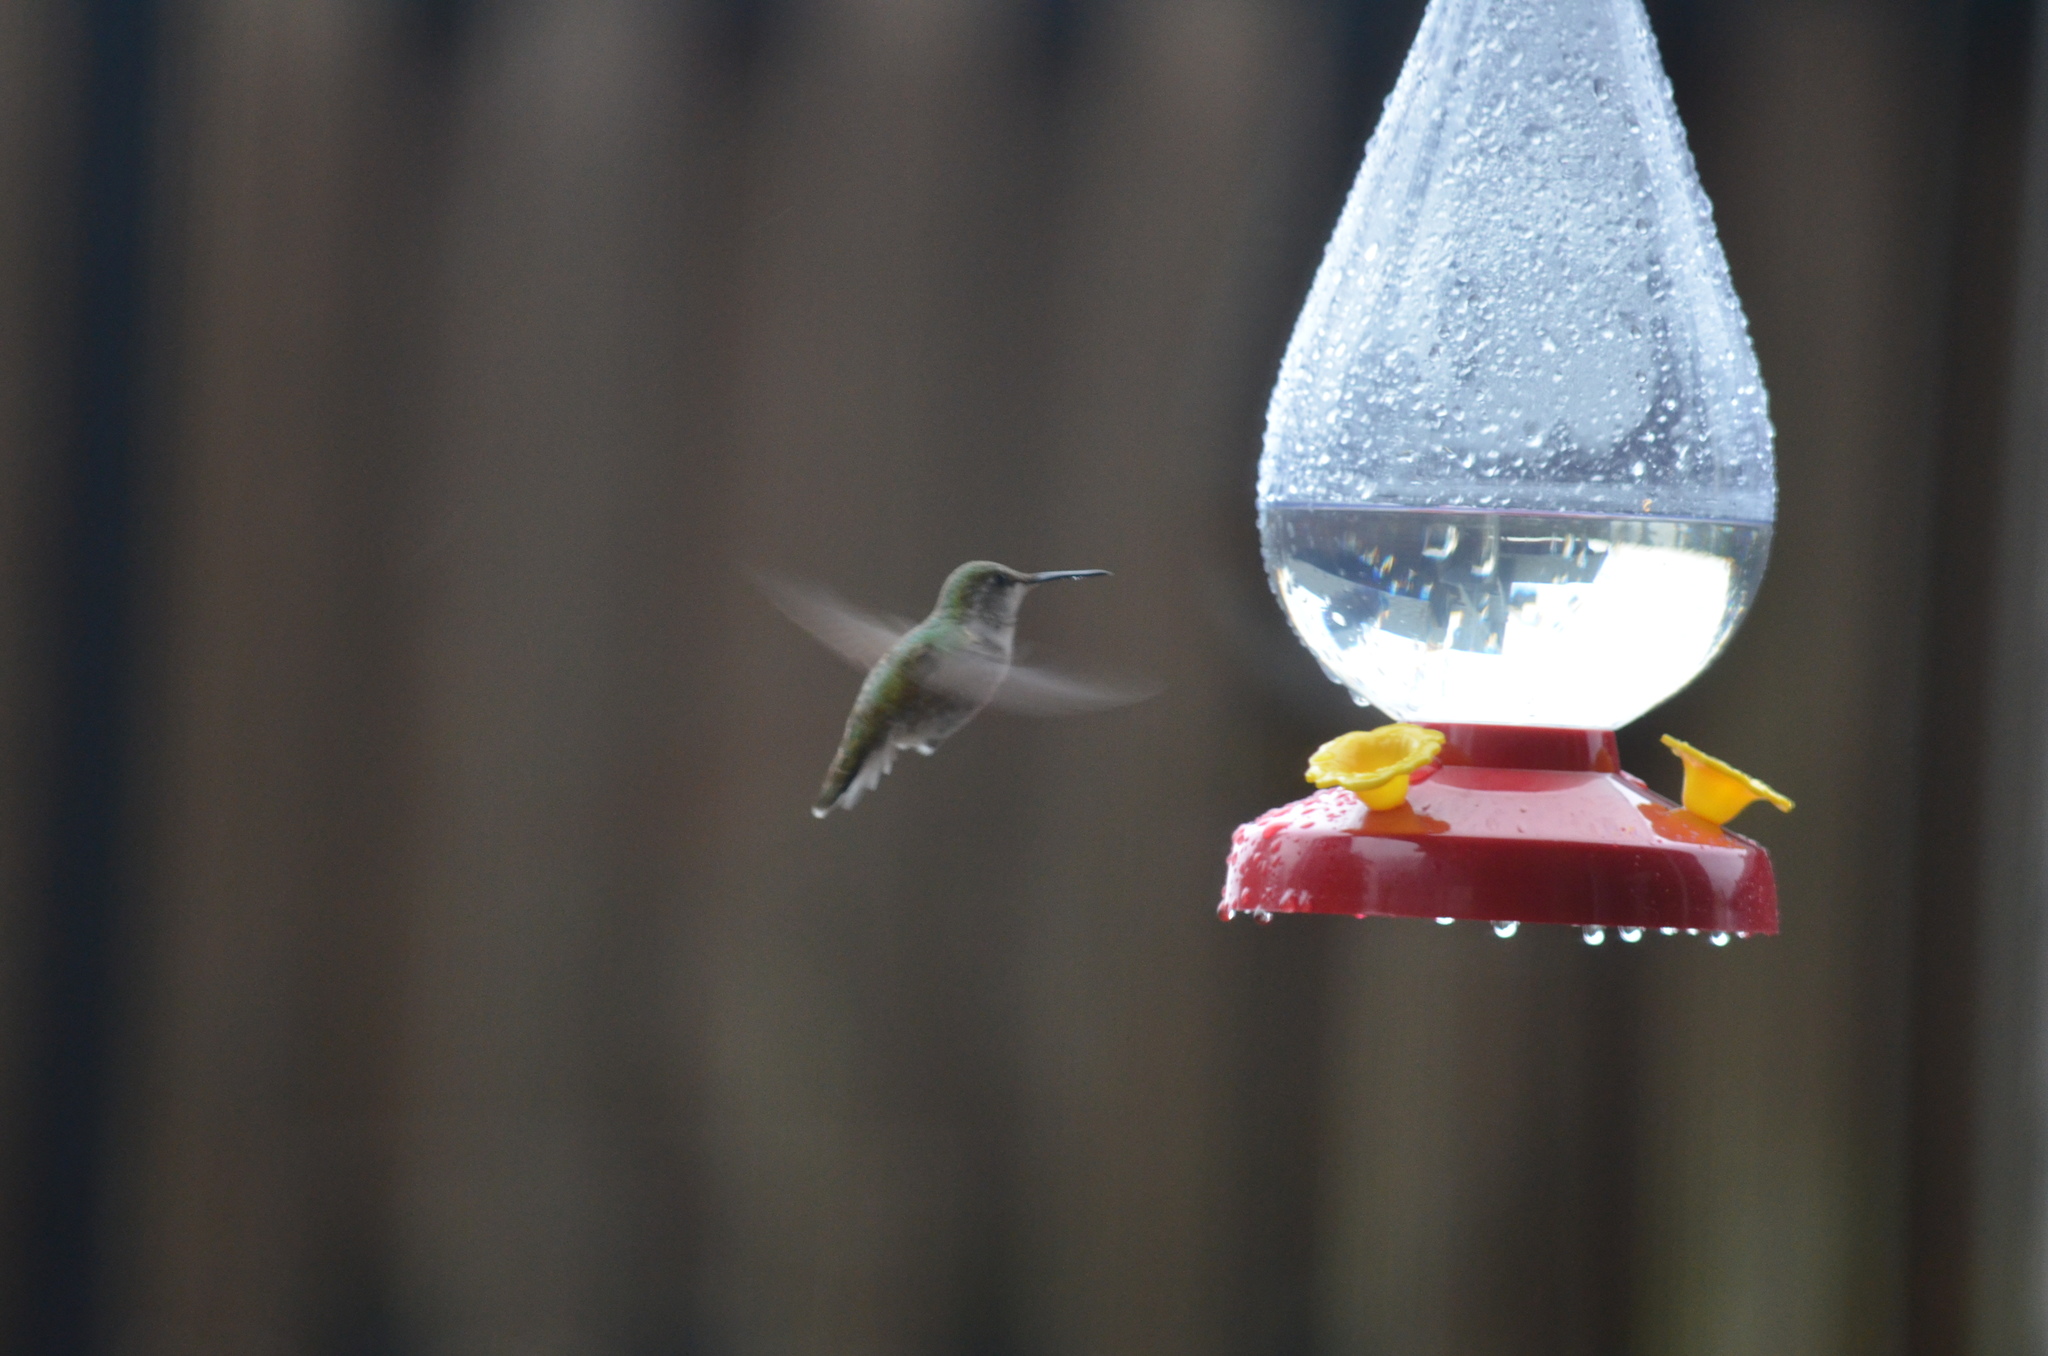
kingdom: Animalia
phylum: Chordata
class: Aves
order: Apodiformes
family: Trochilidae
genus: Calypte
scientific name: Calypte anna
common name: Anna's hummingbird
